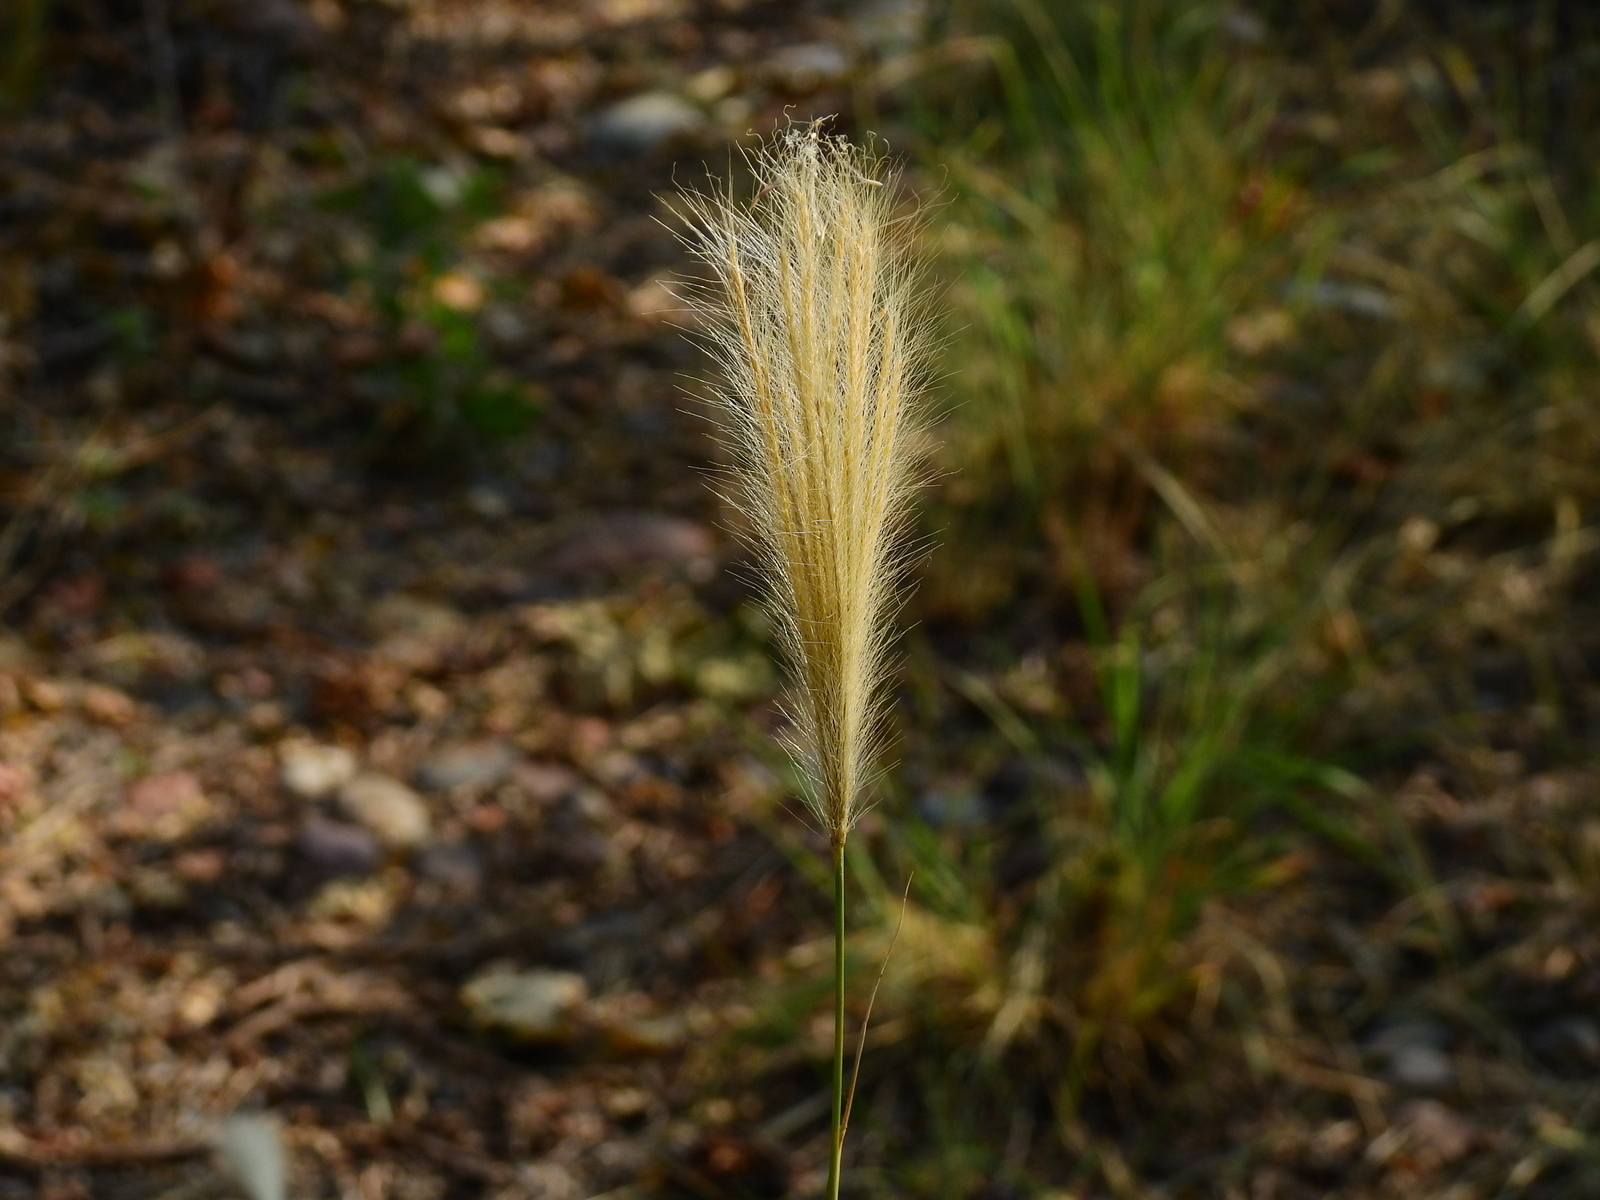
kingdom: Plantae
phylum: Tracheophyta
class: Liliopsida
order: Poales
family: Poaceae
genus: Leptochloa
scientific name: Leptochloa crinita
